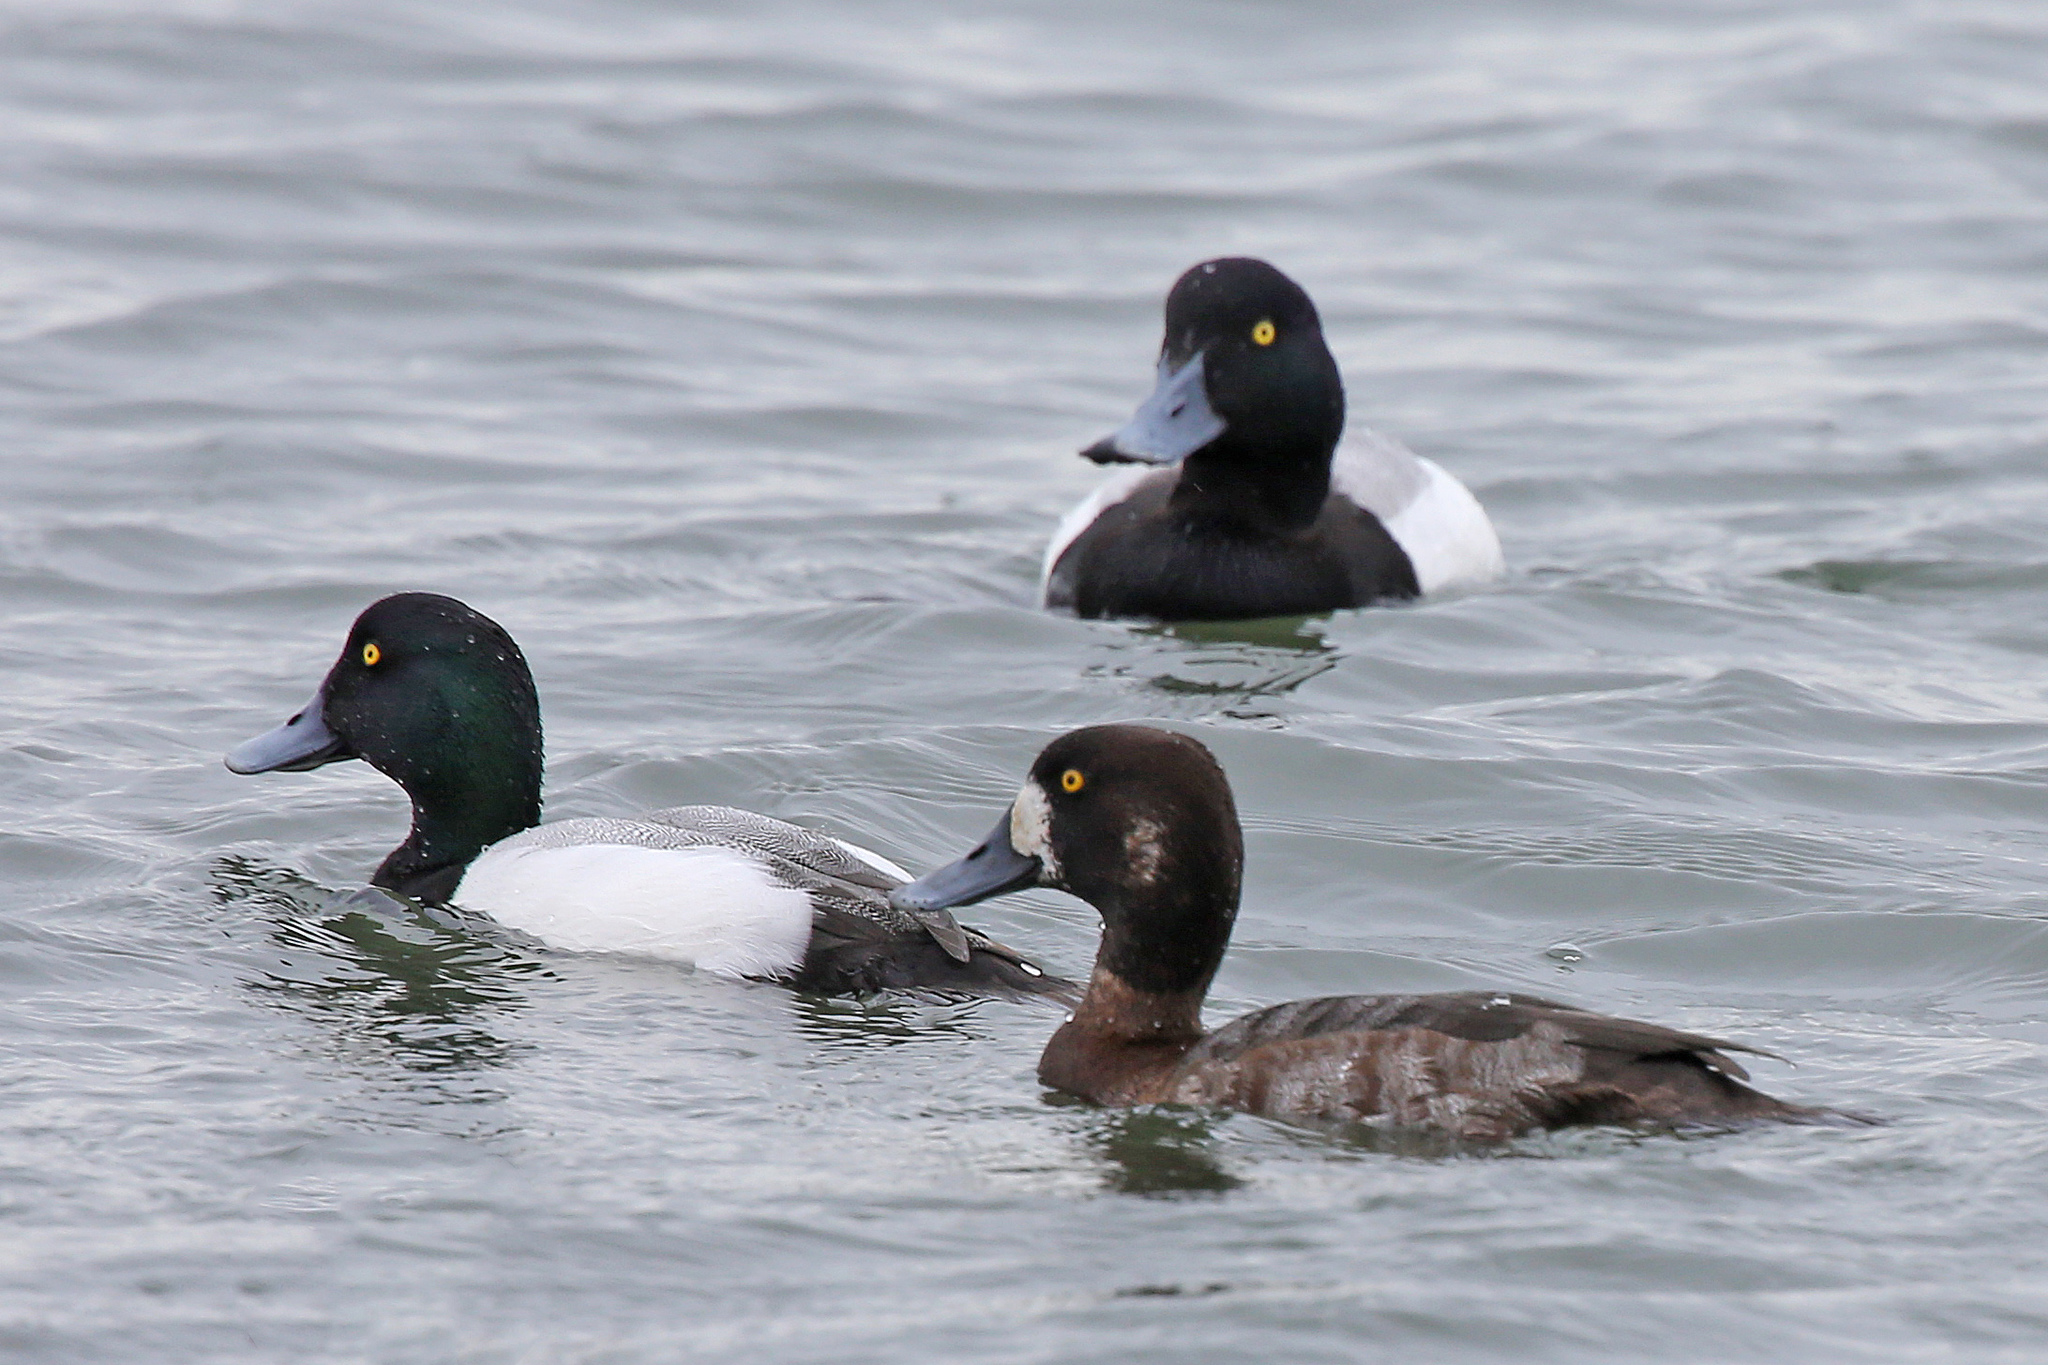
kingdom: Animalia
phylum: Chordata
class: Aves
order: Anseriformes
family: Anatidae
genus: Aythya
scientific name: Aythya marila
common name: Greater scaup
